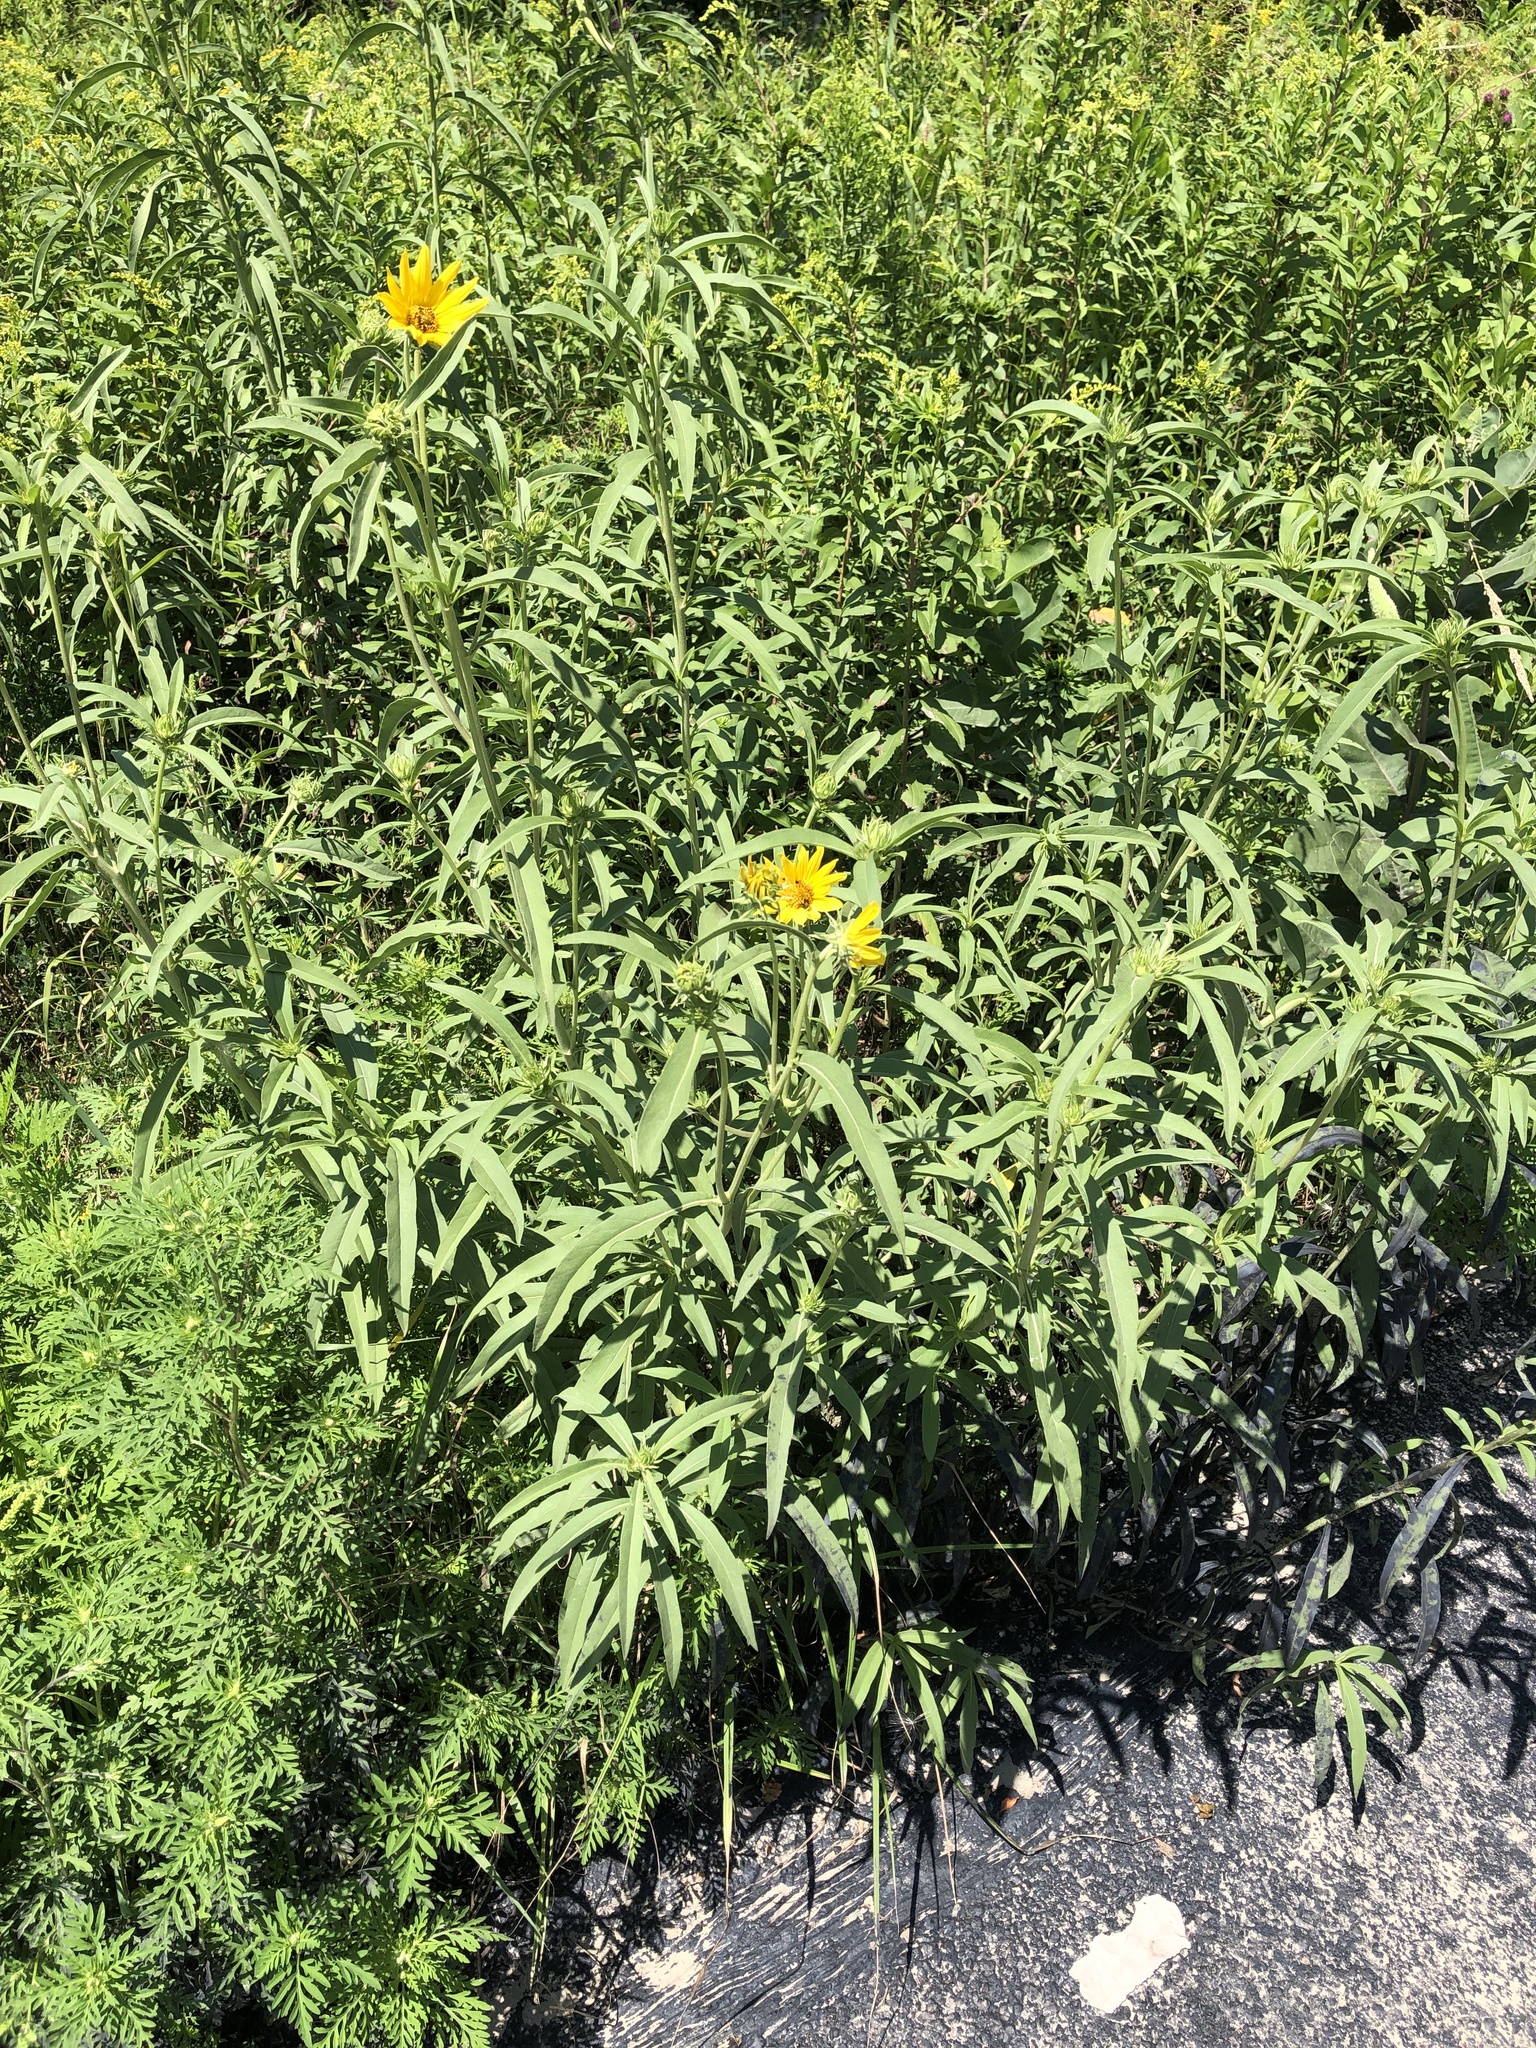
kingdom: Plantae
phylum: Tracheophyta
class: Magnoliopsida
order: Asterales
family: Asteraceae
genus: Helianthus
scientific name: Helianthus maximiliani
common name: Maximilian's sunflower
